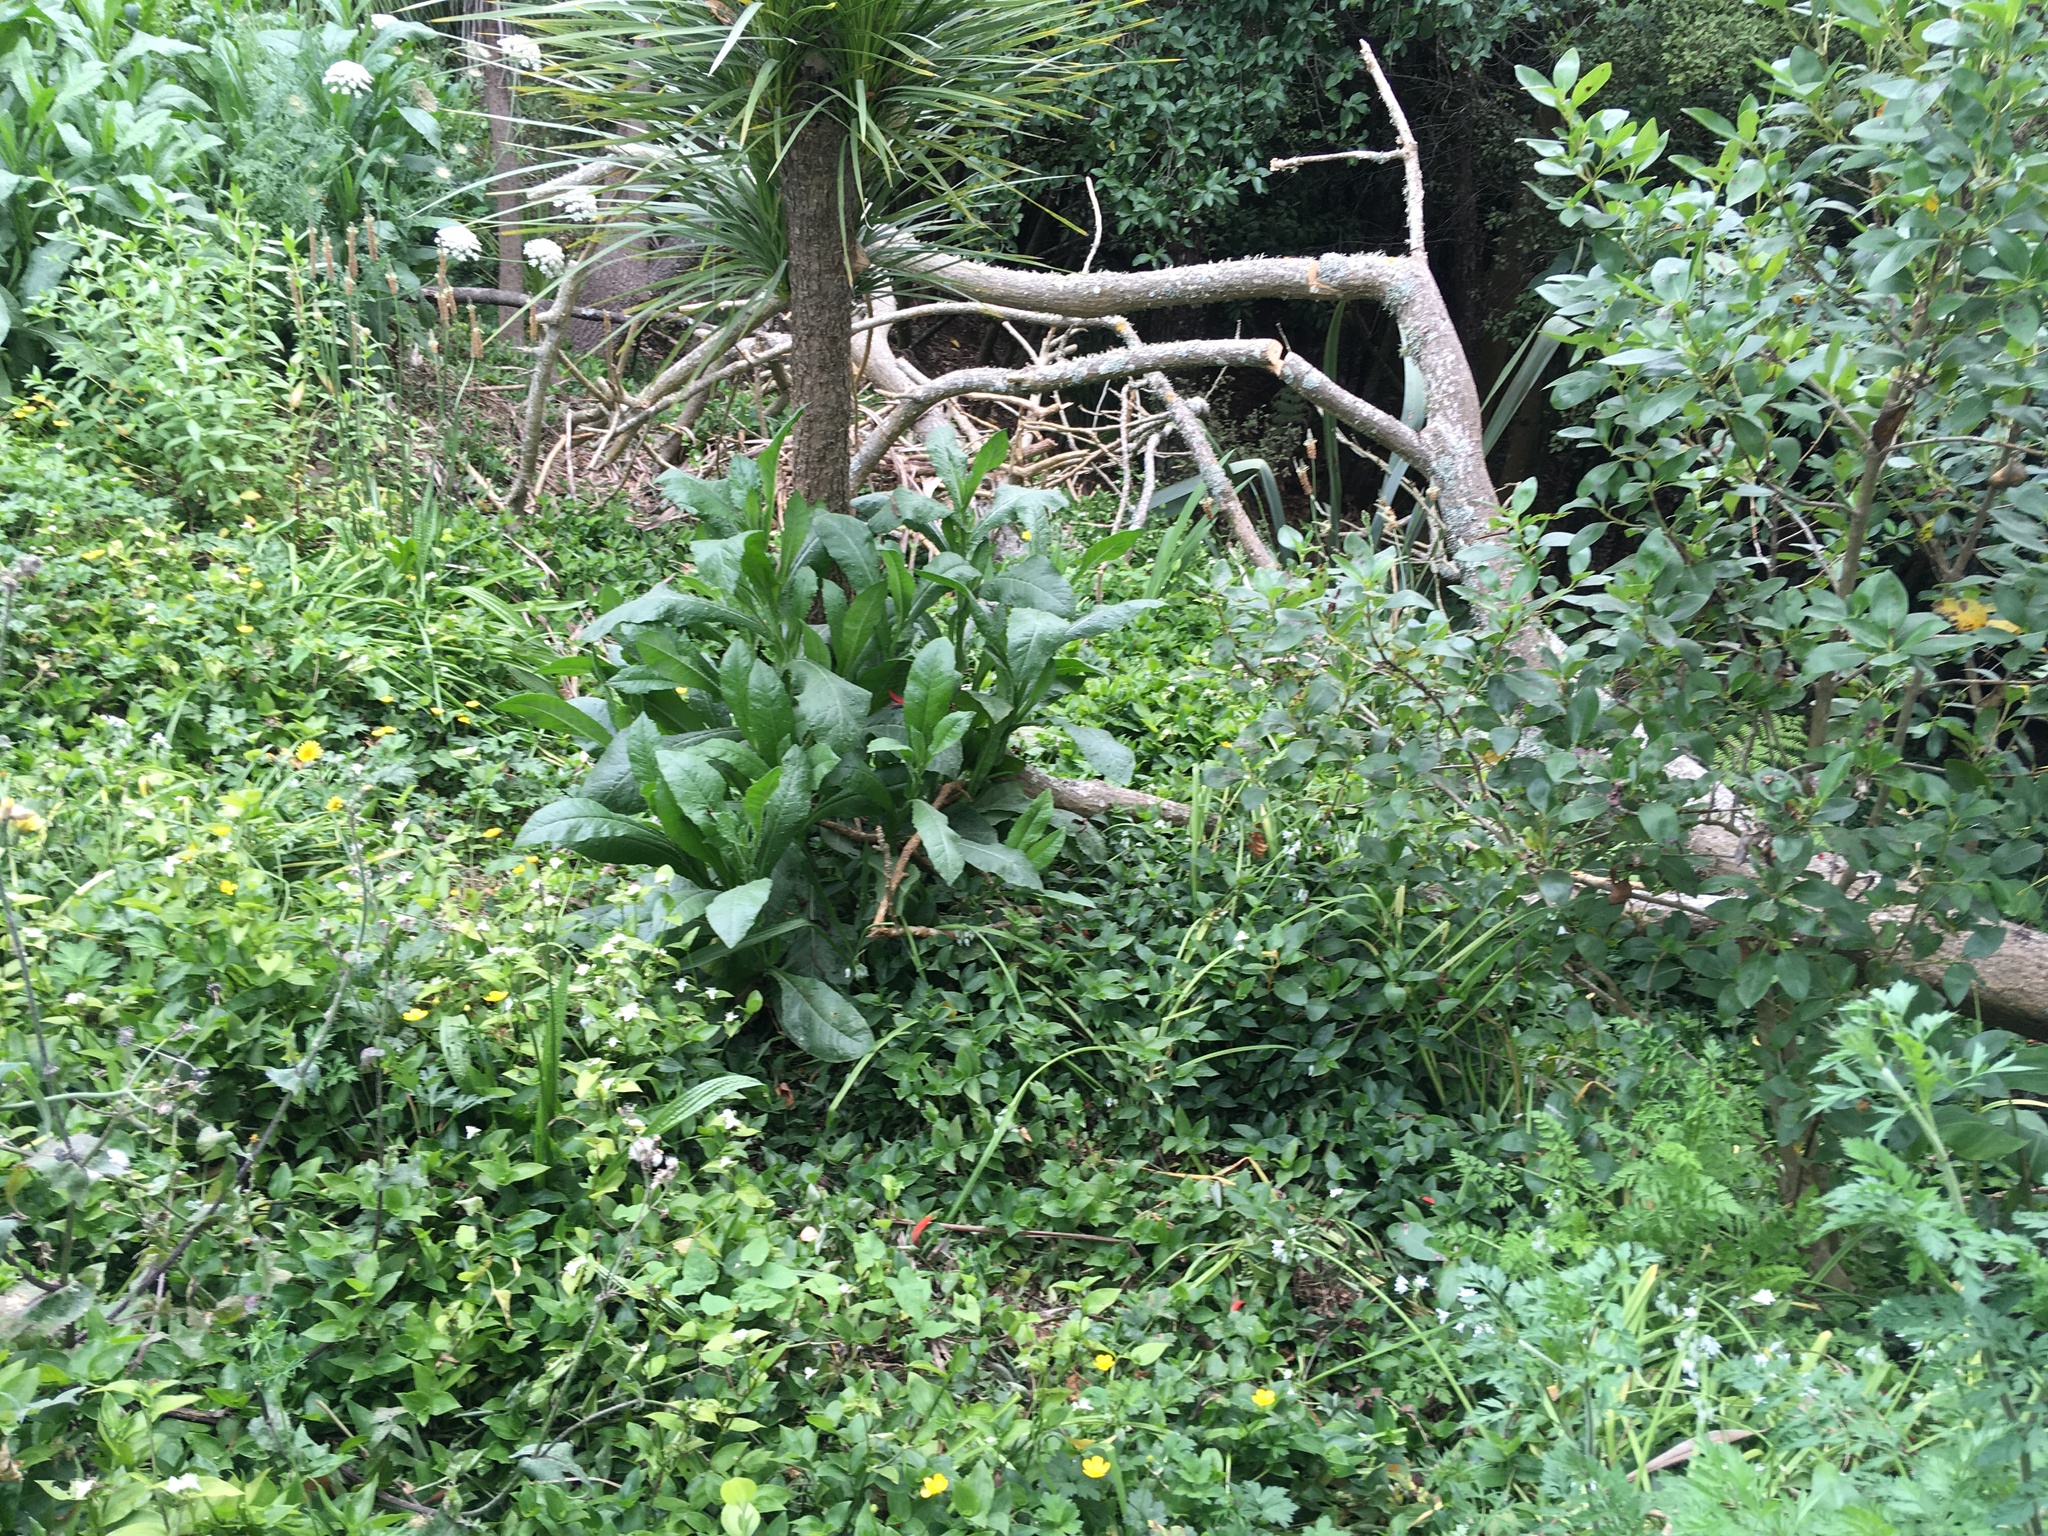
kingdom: Plantae
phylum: Tracheophyta
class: Liliopsida
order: Commelinales
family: Commelinaceae
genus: Tradescantia
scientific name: Tradescantia fluminensis
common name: Wandering-jew
